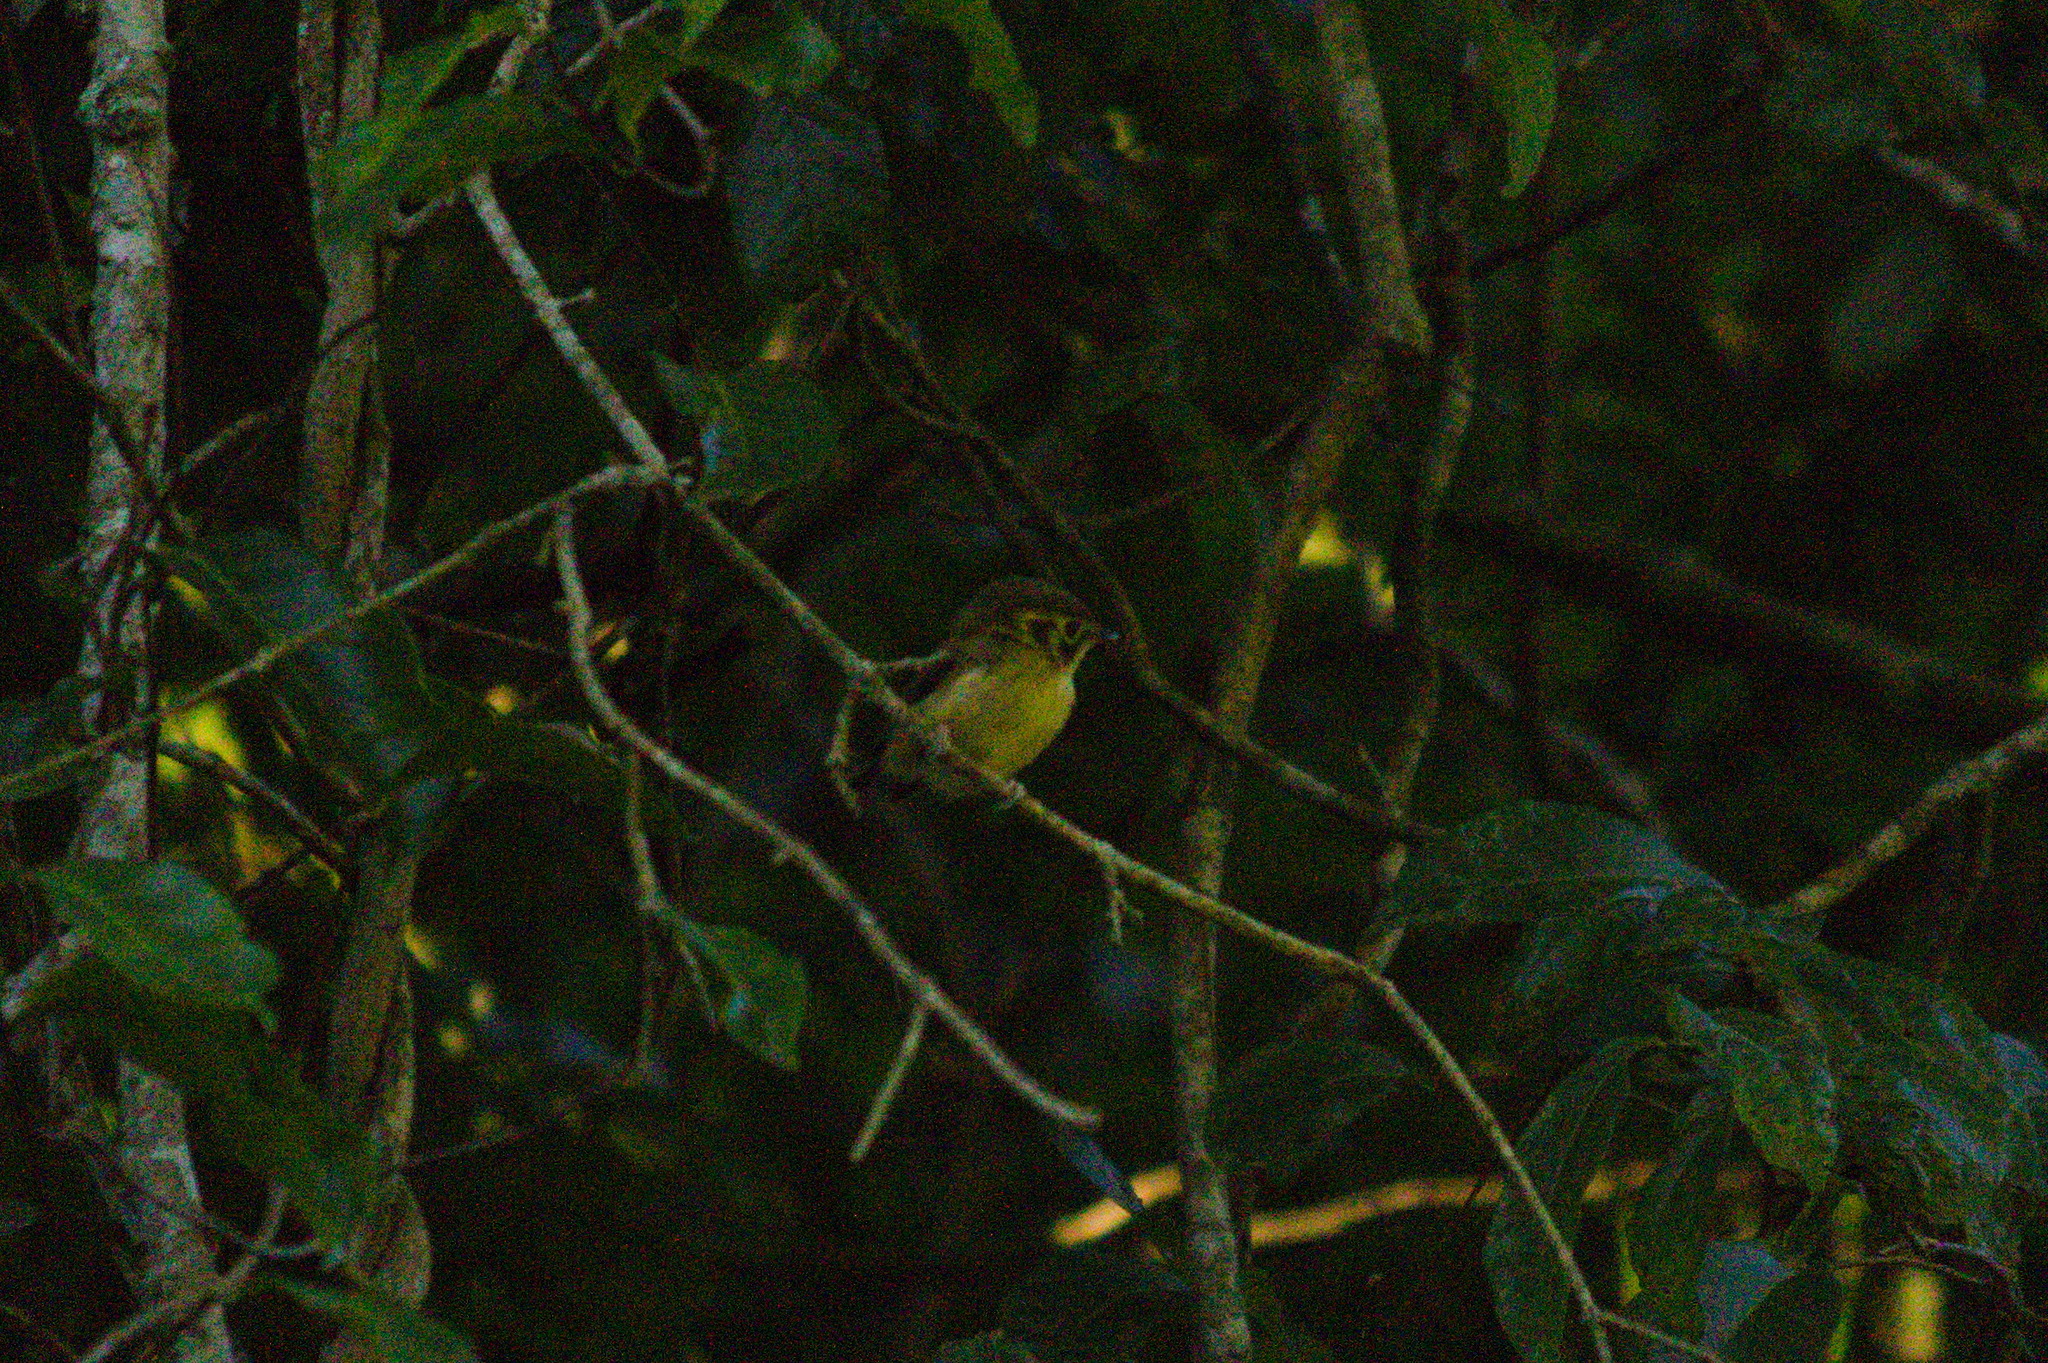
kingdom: Animalia
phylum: Chordata
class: Aves
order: Passeriformes
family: Tyrannidae
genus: Platyrinchus
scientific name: Platyrinchus mystaceus
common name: White-throated spadebill
